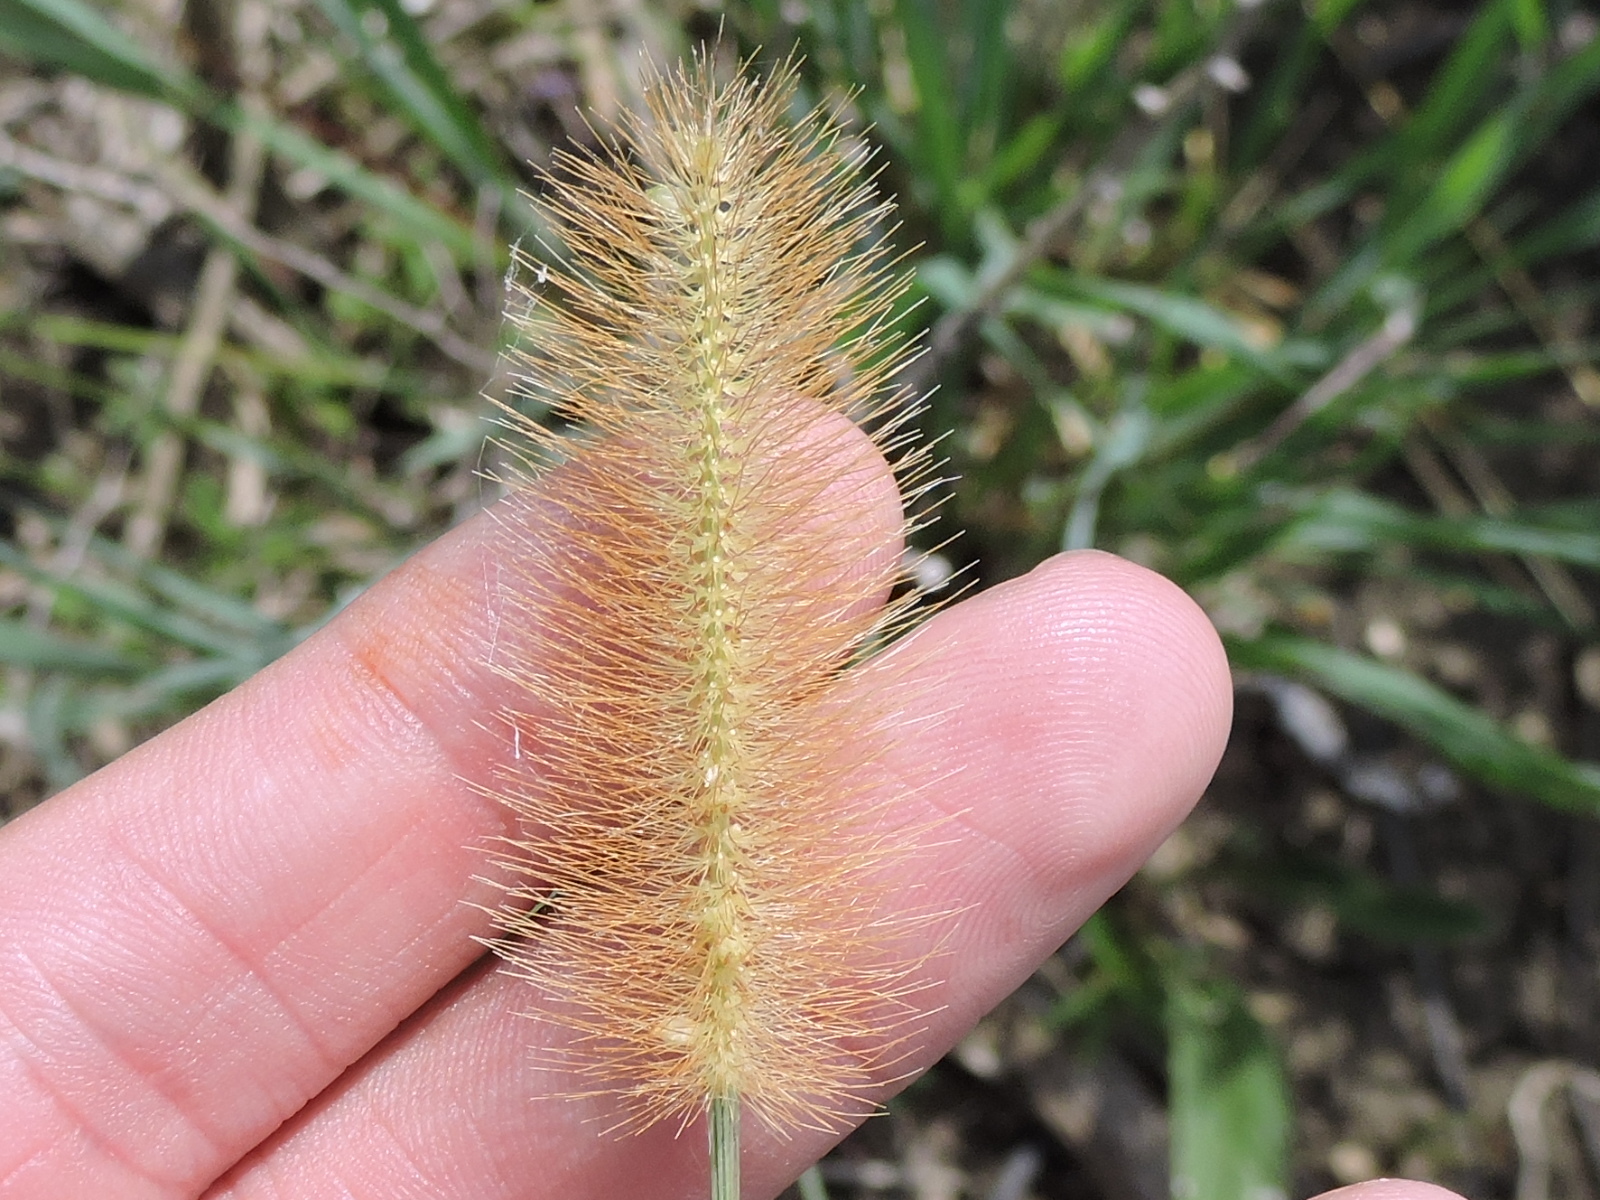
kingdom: Plantae
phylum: Tracheophyta
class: Liliopsida
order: Poales
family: Poaceae
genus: Setaria
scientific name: Setaria parviflora
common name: Knotroot bristle-grass
